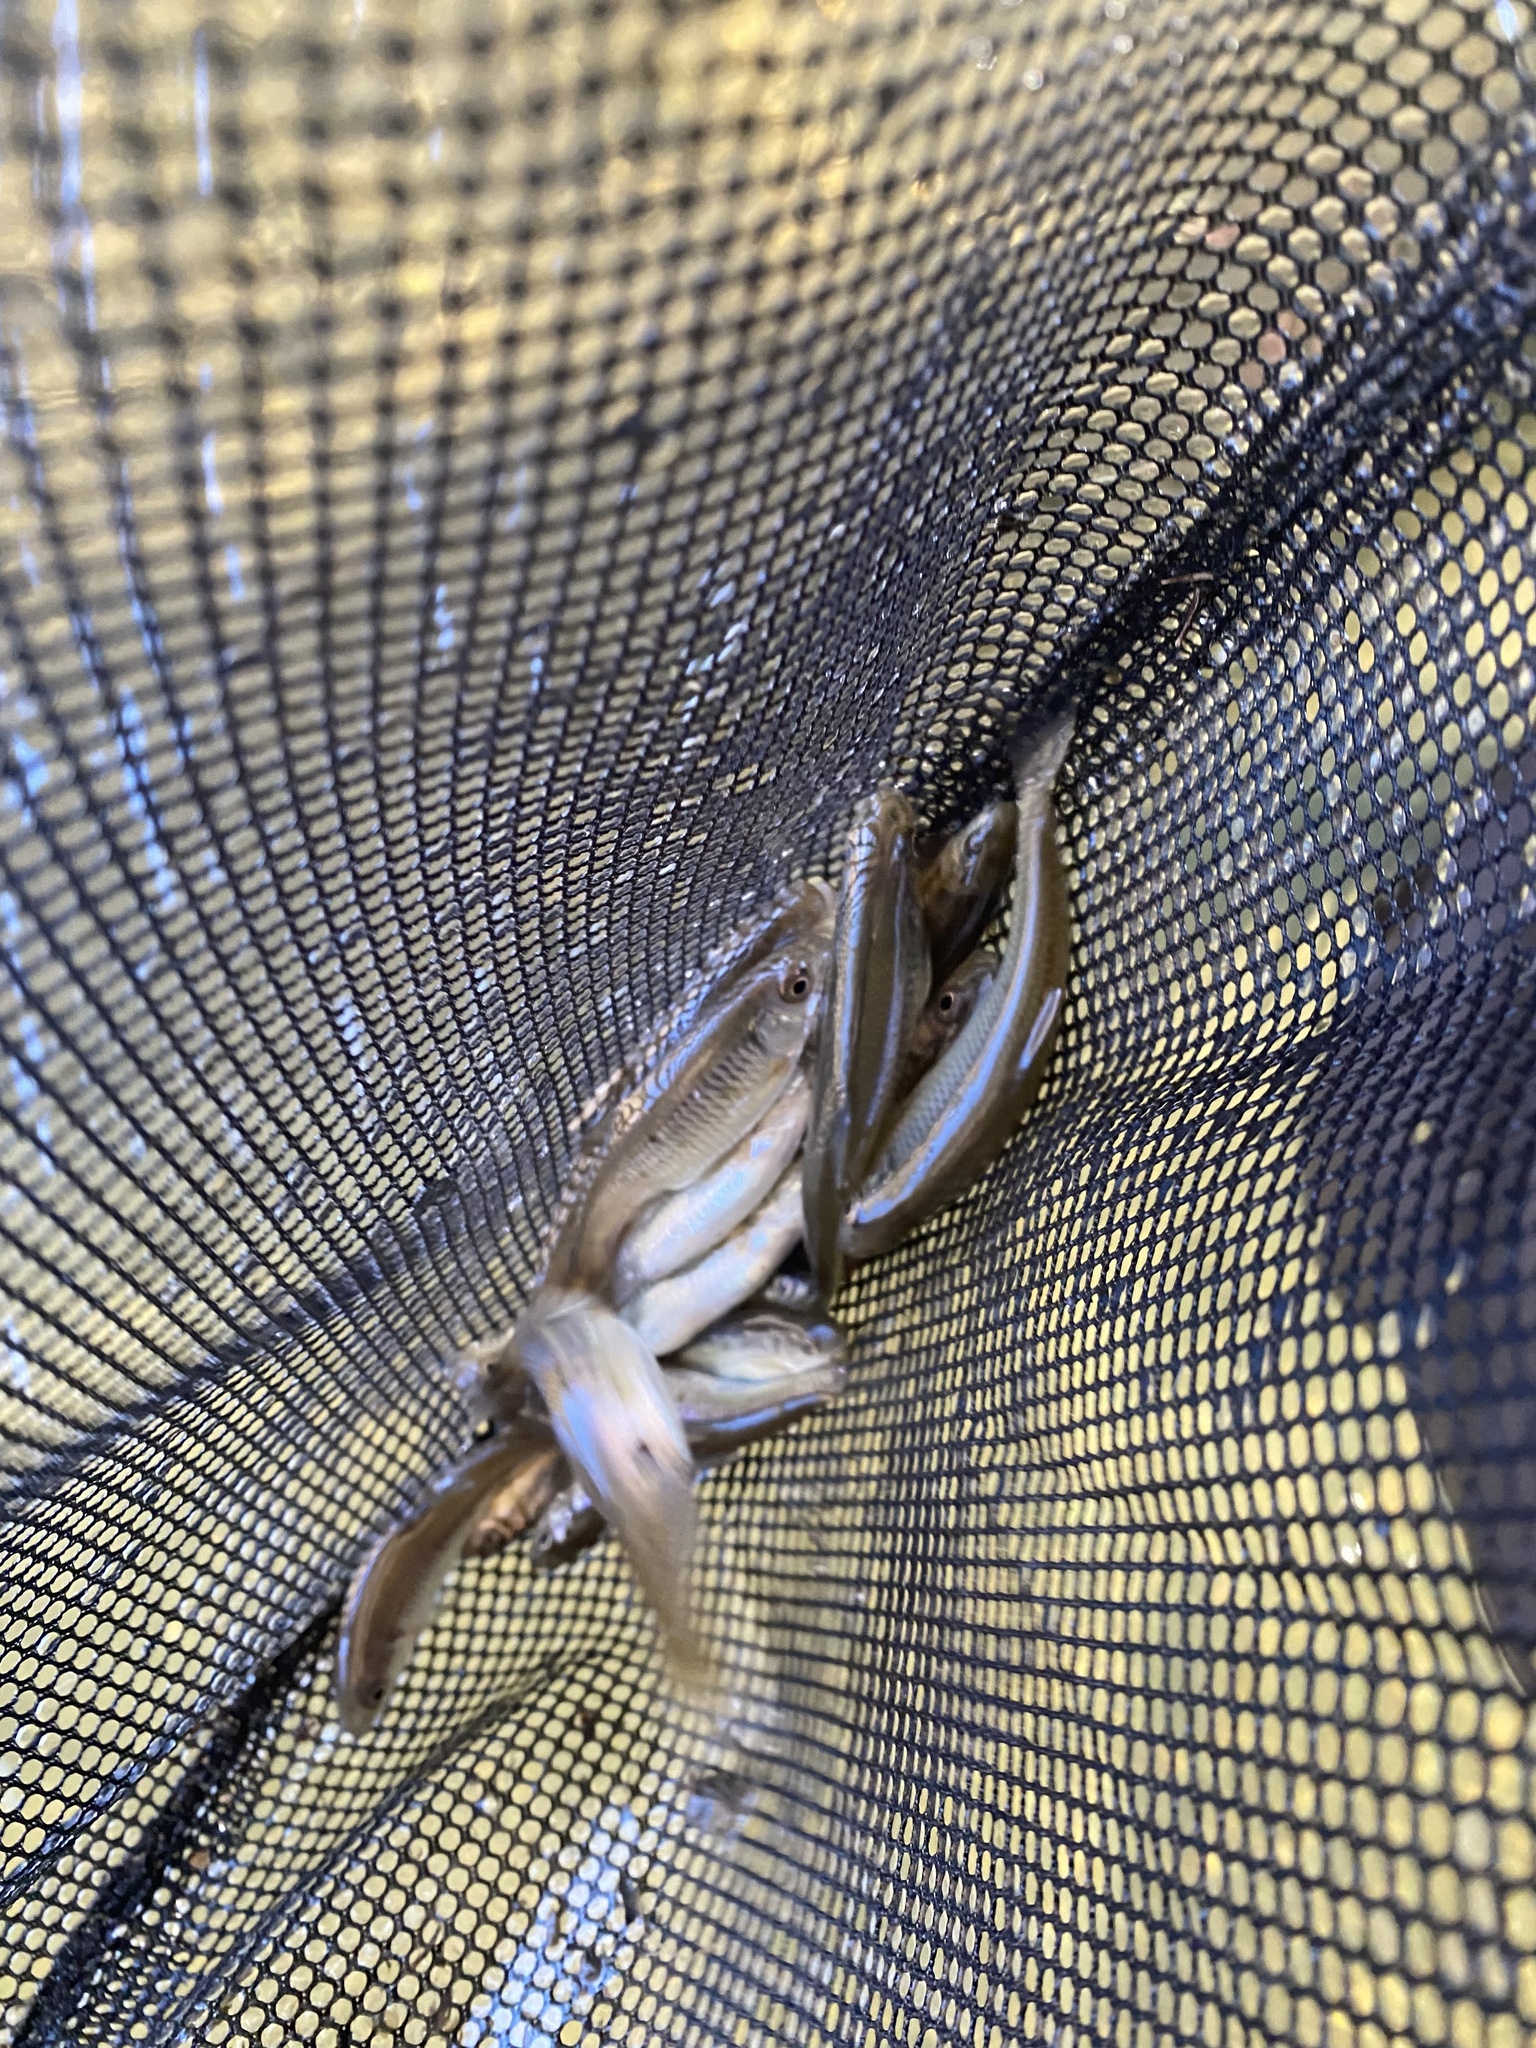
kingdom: Animalia
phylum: Chordata
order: Cypriniformes
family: Cyprinidae
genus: Luxilus
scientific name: Luxilus cornutus
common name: Common shiner
